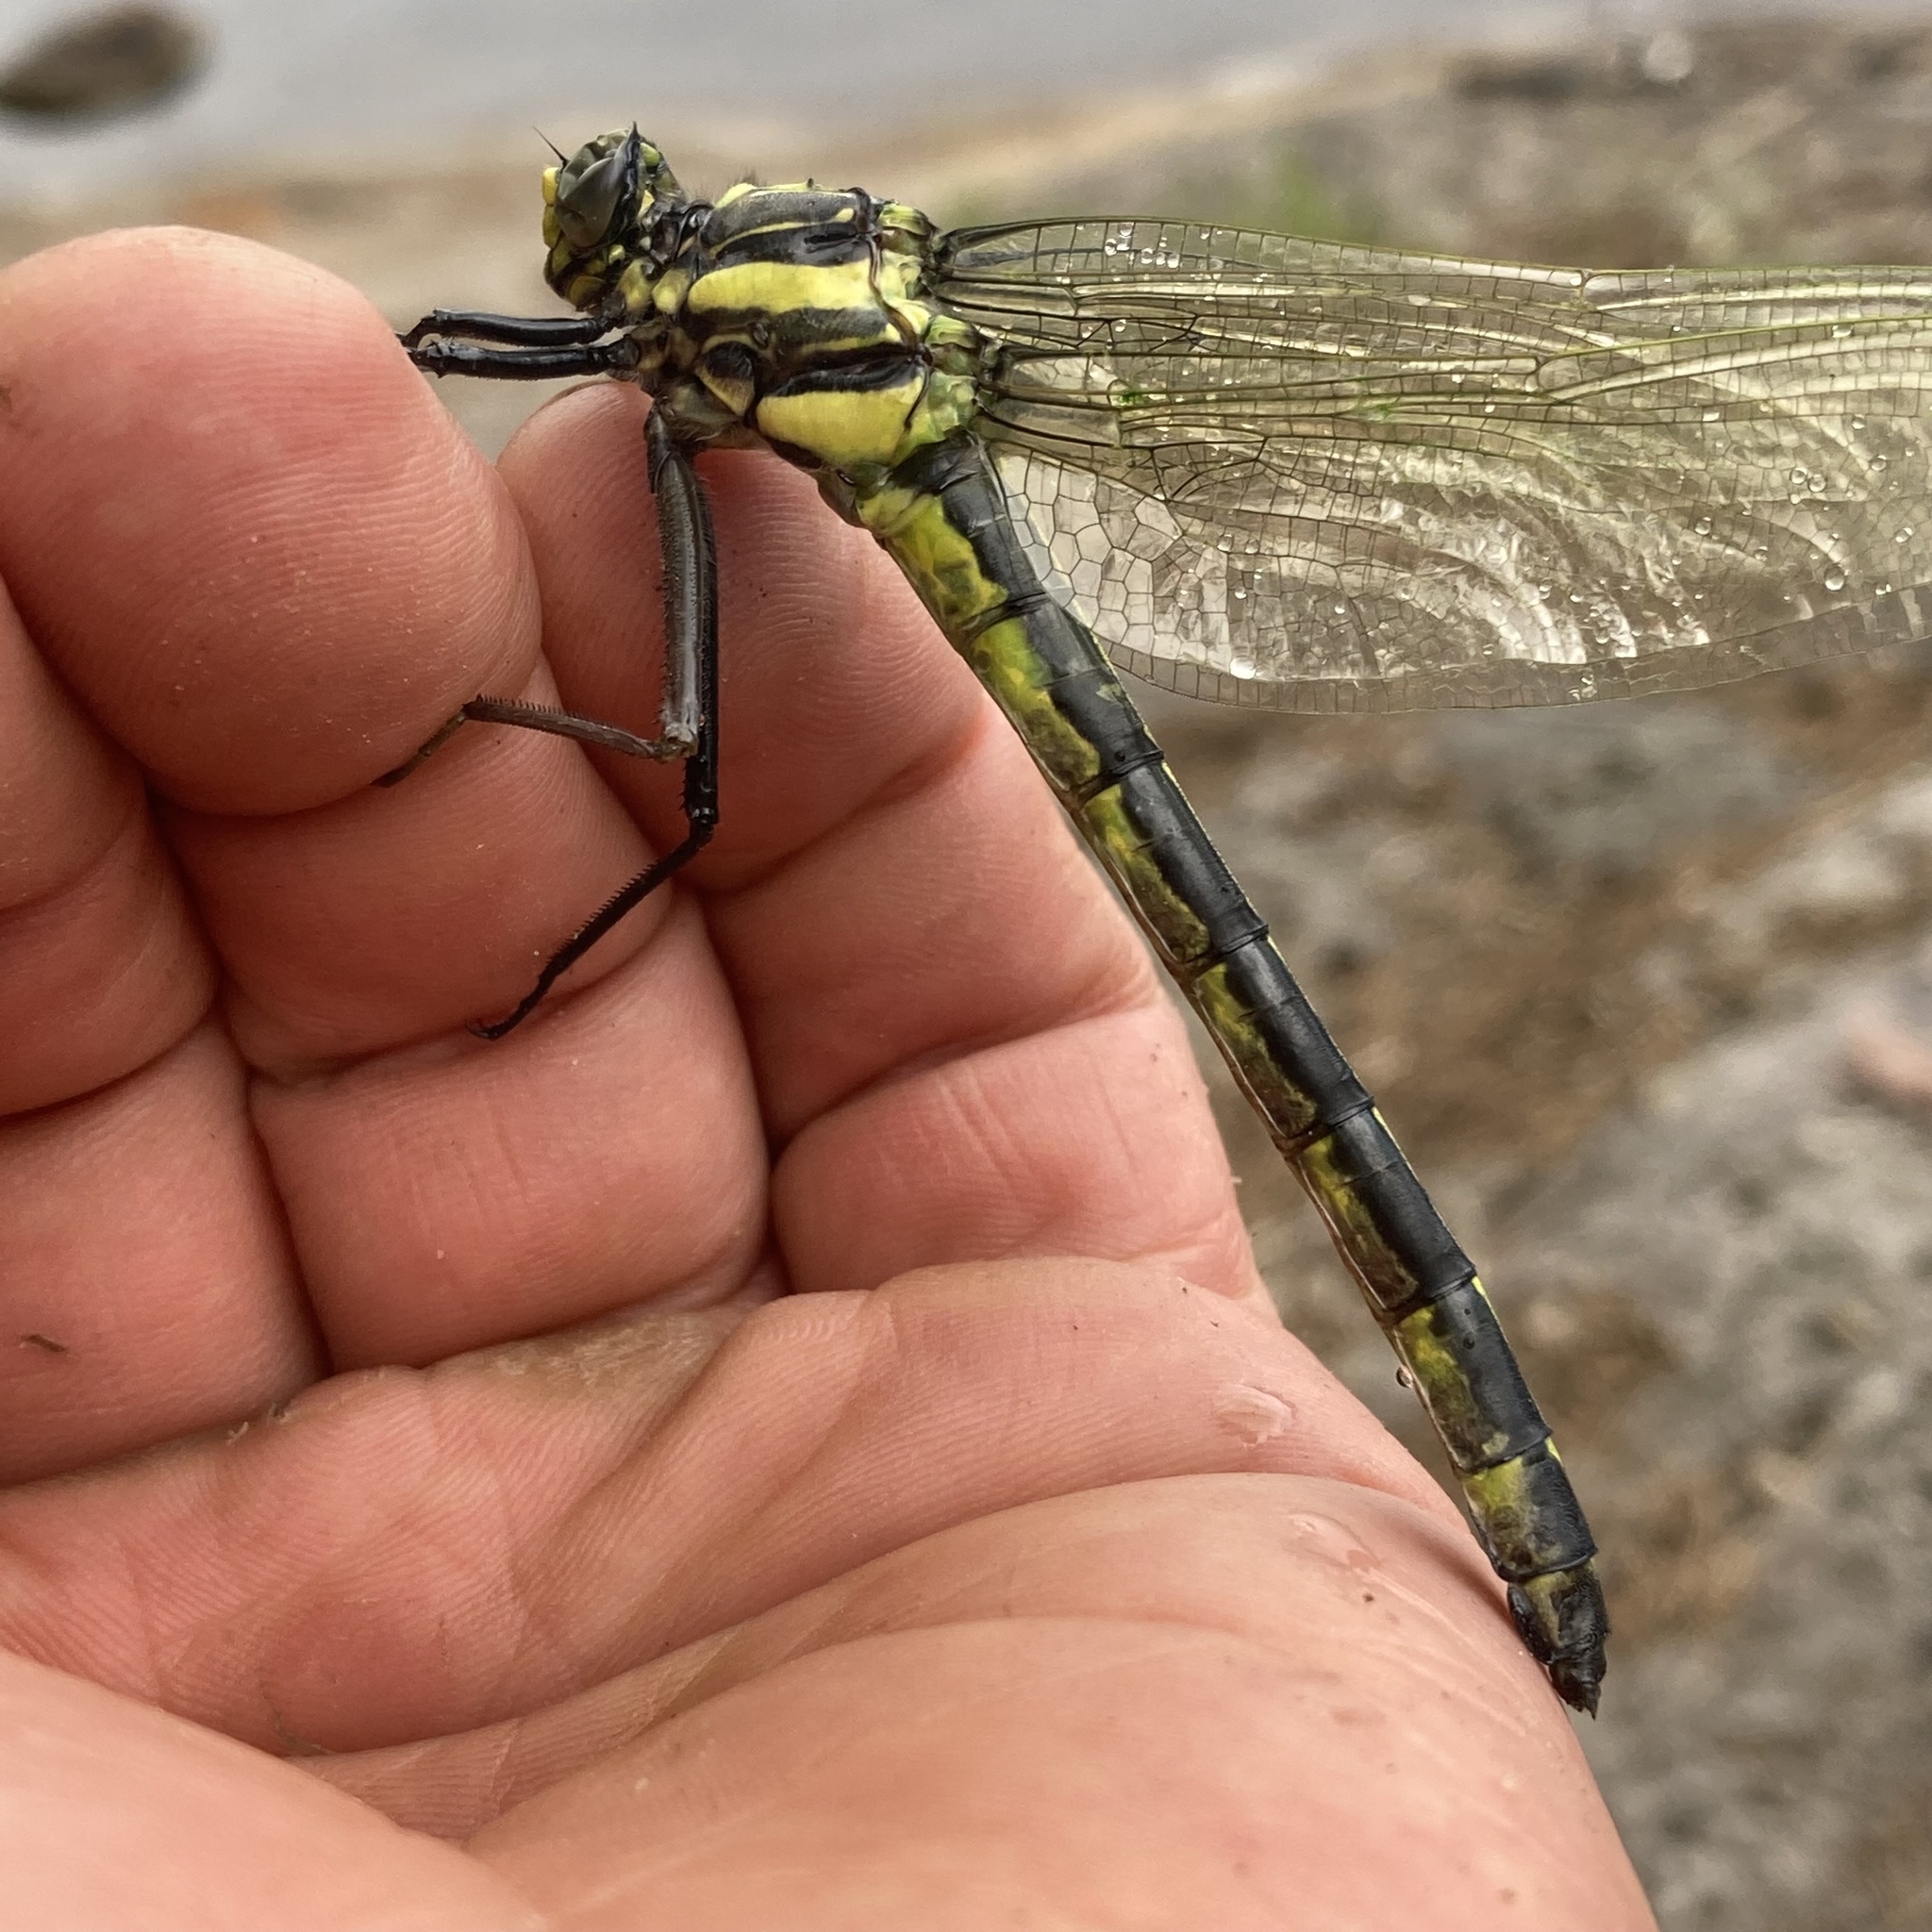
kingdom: Animalia
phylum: Arthropoda
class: Insecta
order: Odonata
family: Gomphidae
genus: Hagenius
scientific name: Hagenius brevistylus
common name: Dragonhunter
